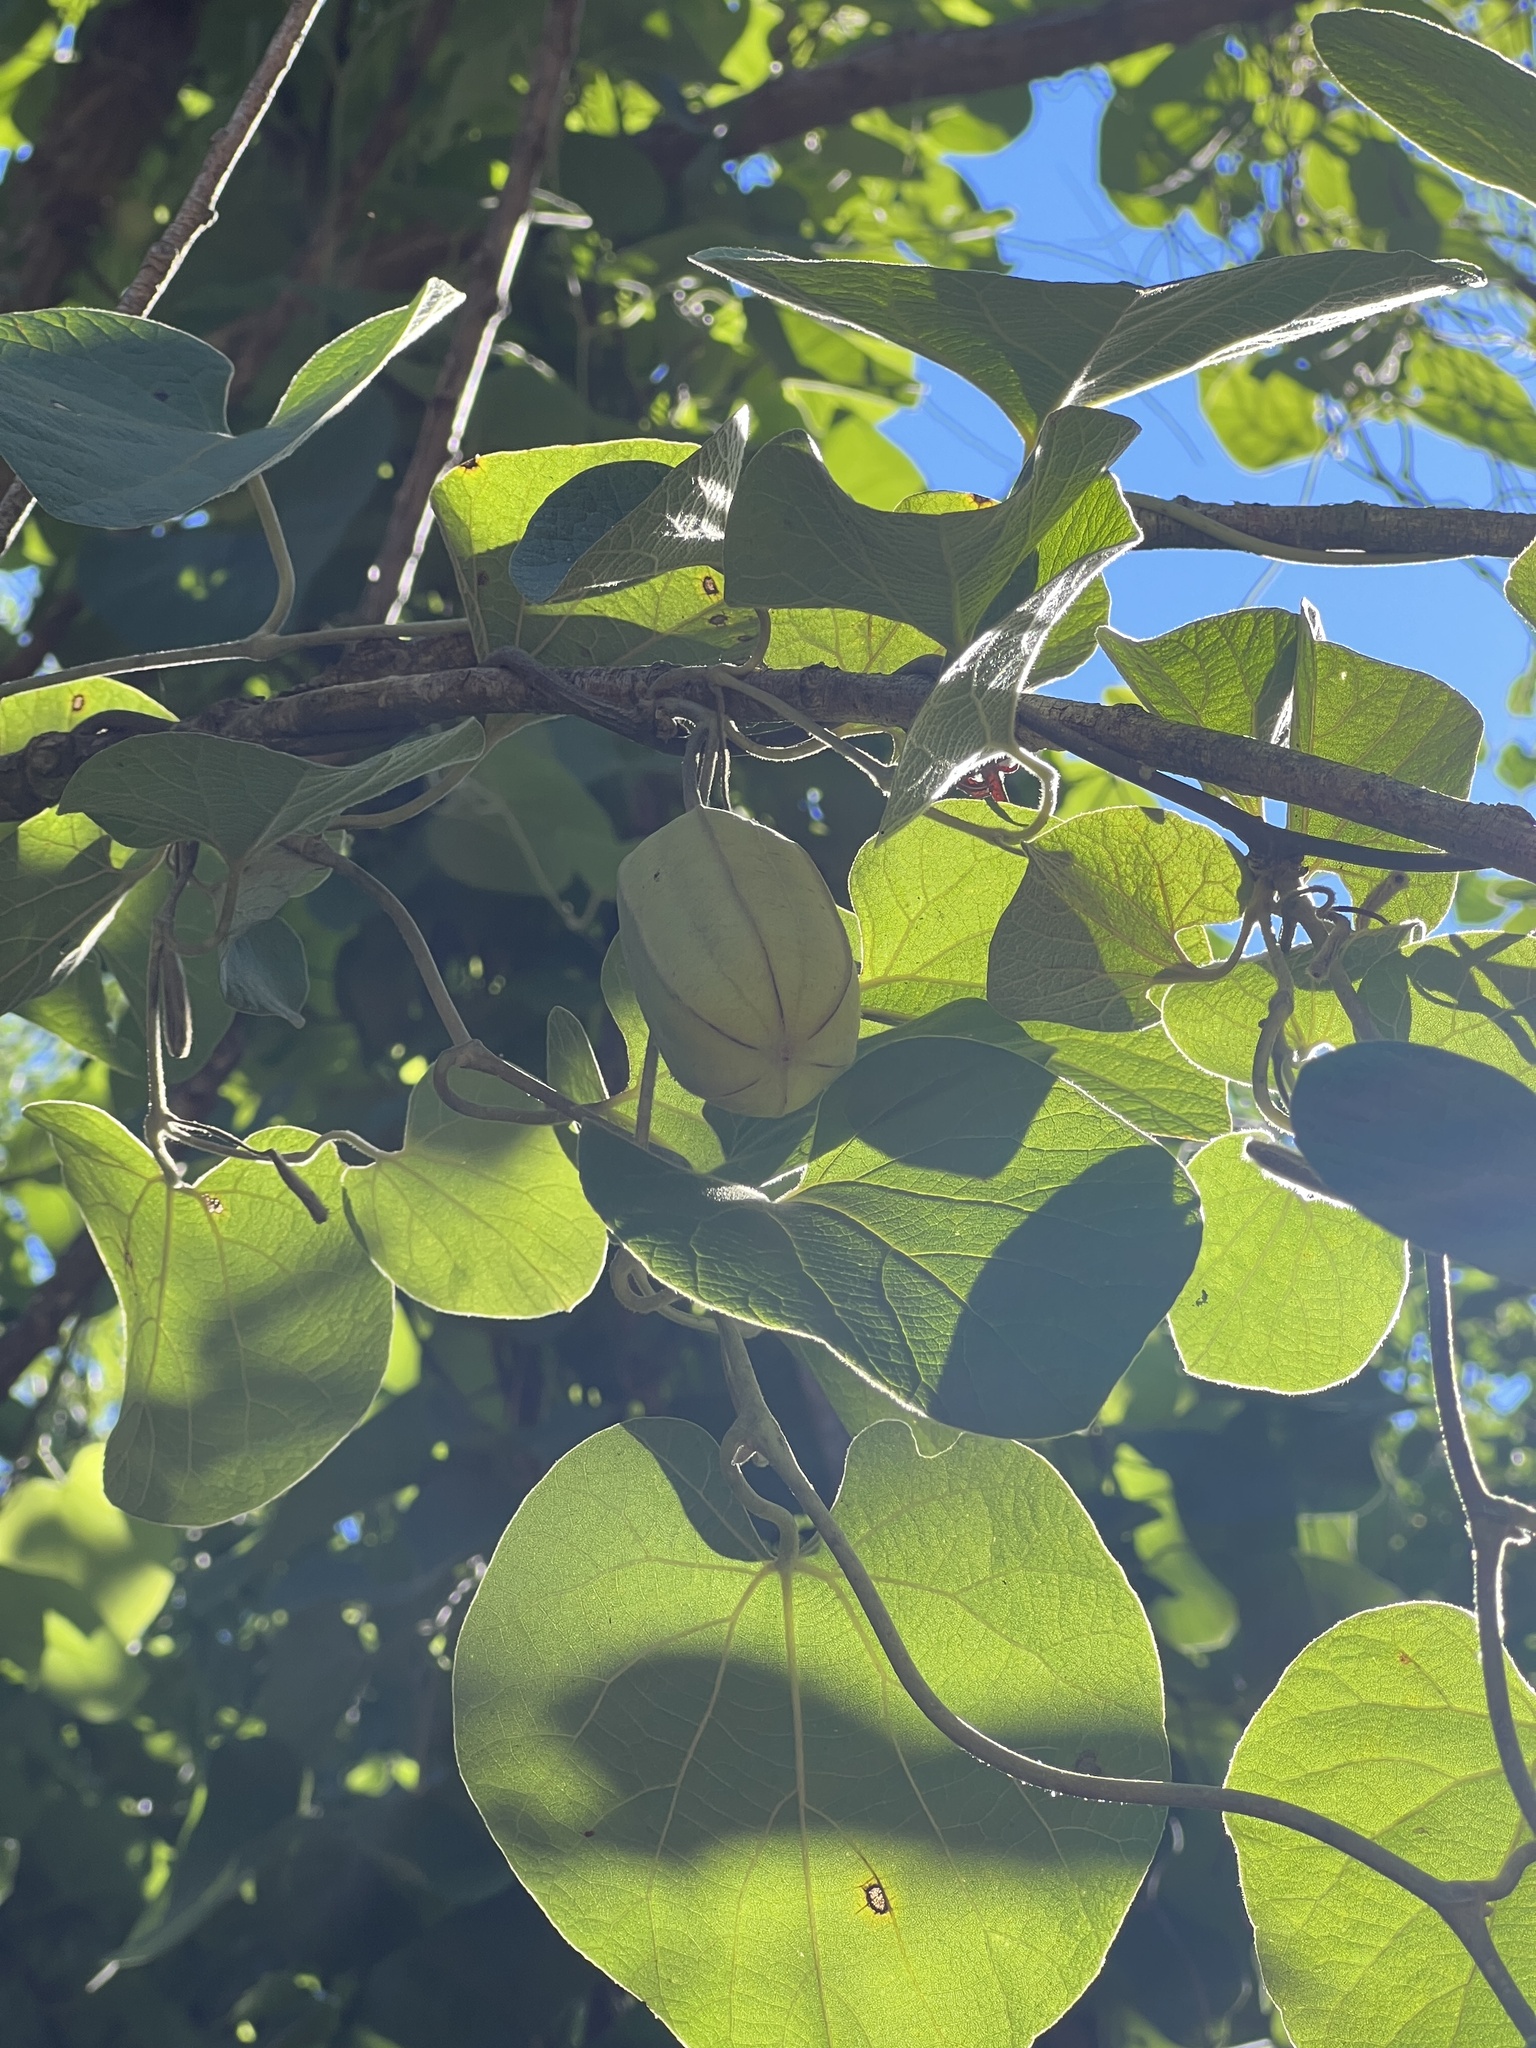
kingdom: Plantae
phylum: Tracheophyta
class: Magnoliopsida
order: Piperales
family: Aristolochiaceae
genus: Isotrema
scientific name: Isotrema tomentosum
